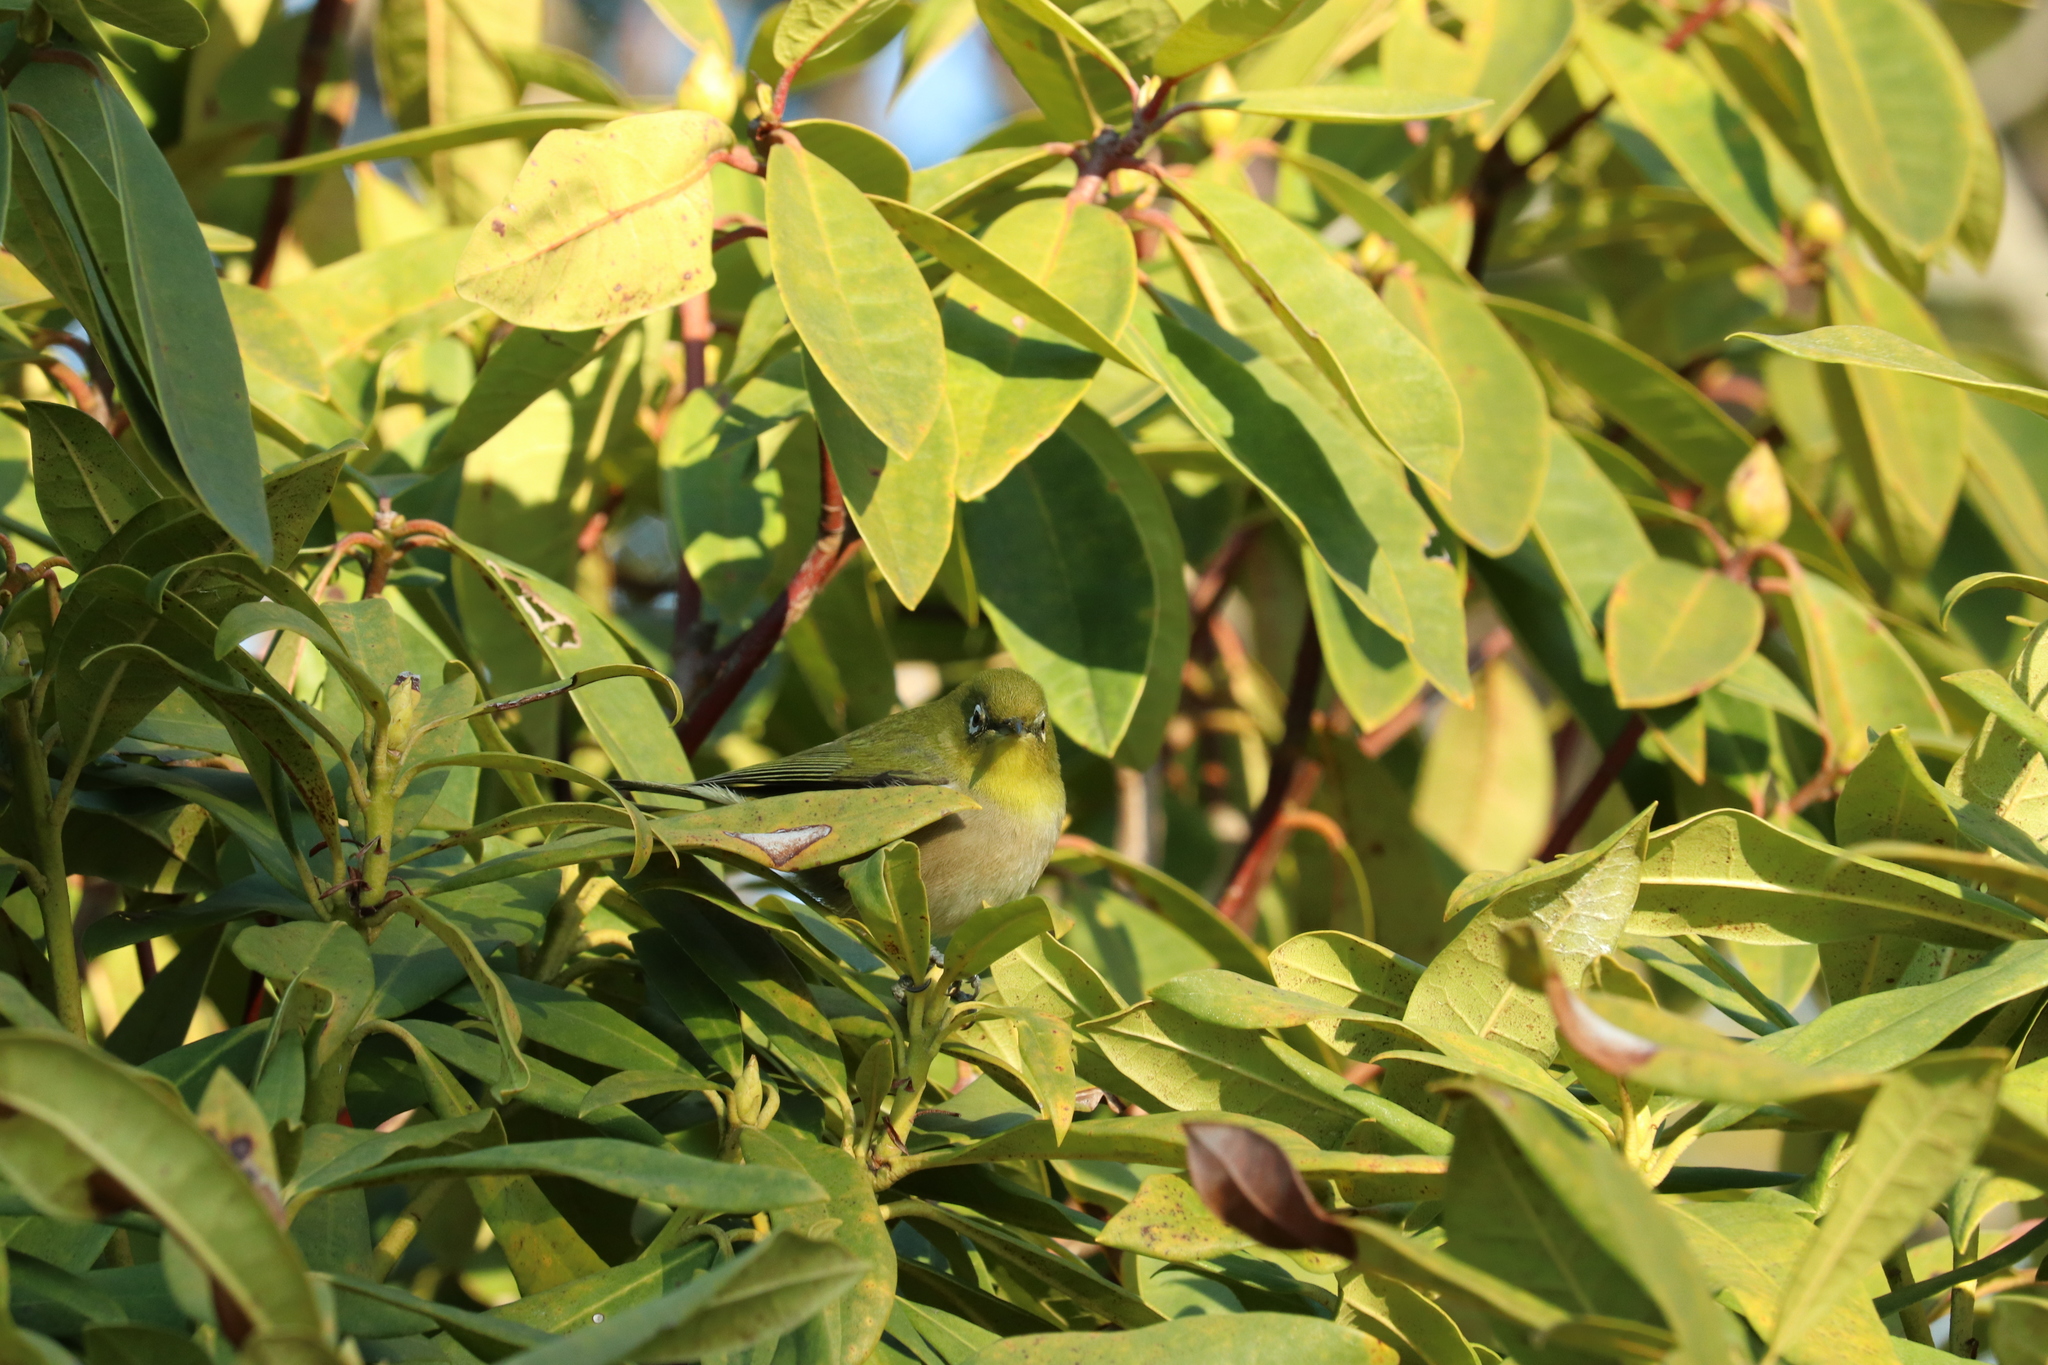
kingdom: Animalia
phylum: Chordata
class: Aves
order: Passeriformes
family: Zosteropidae
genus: Zosterops
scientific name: Zosterops japonicus
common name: Japanese white-eye
